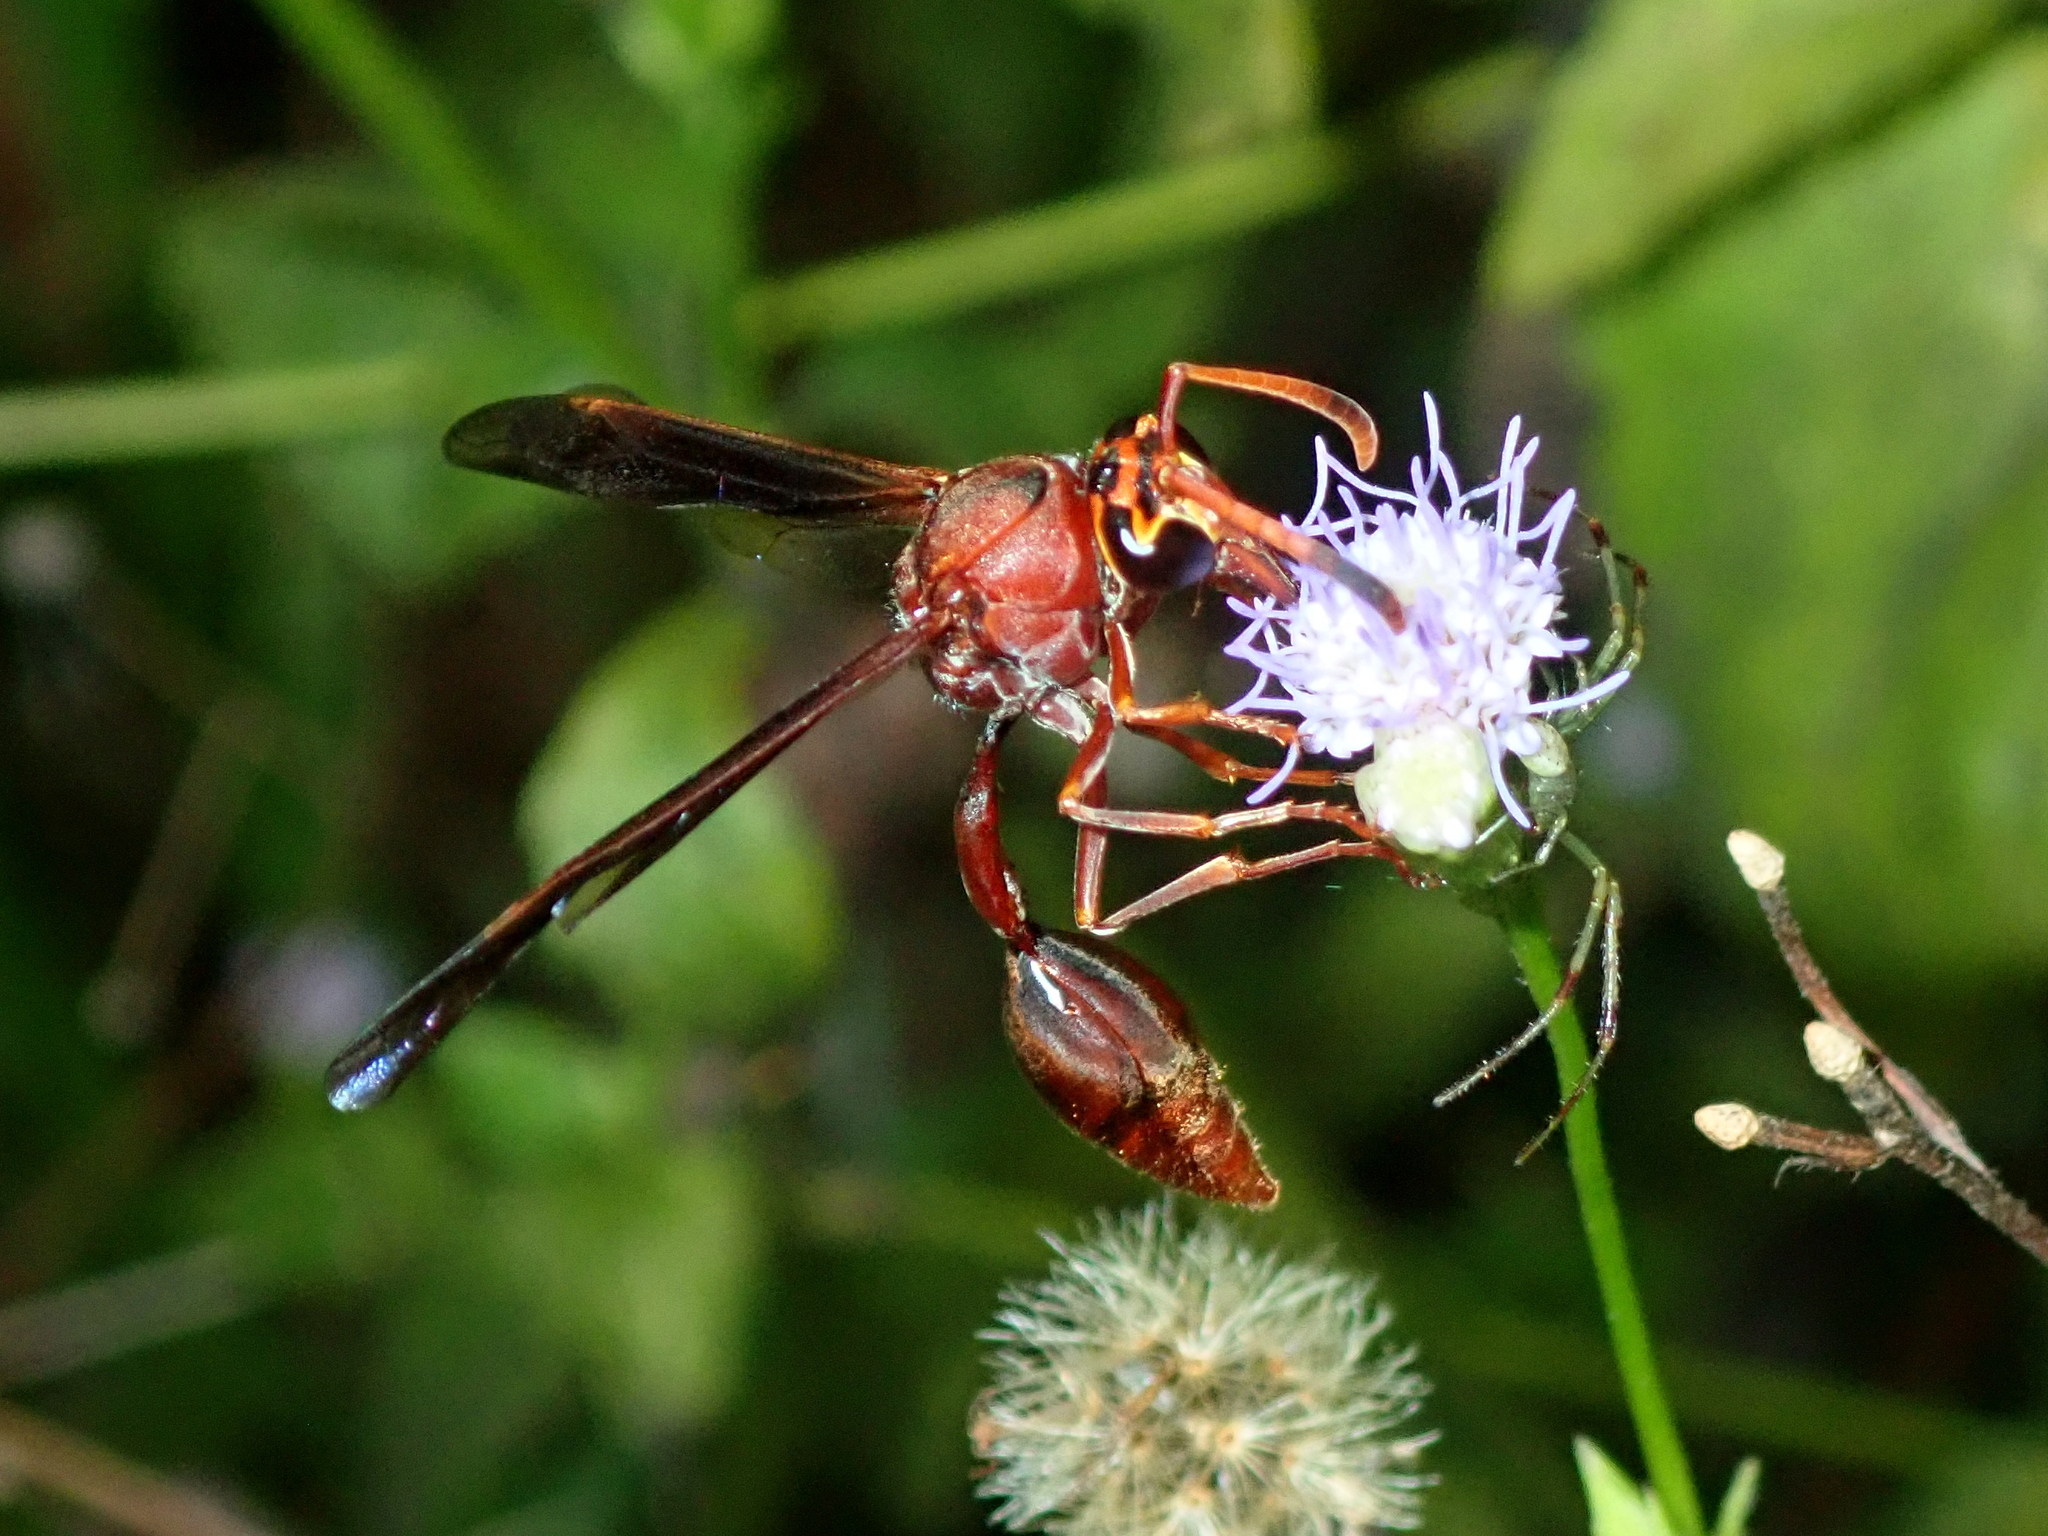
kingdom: Animalia
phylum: Arthropoda
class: Insecta
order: Hymenoptera
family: Eumenidae
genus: Zeta
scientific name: Zeta argillaceum
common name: Potter wasp
